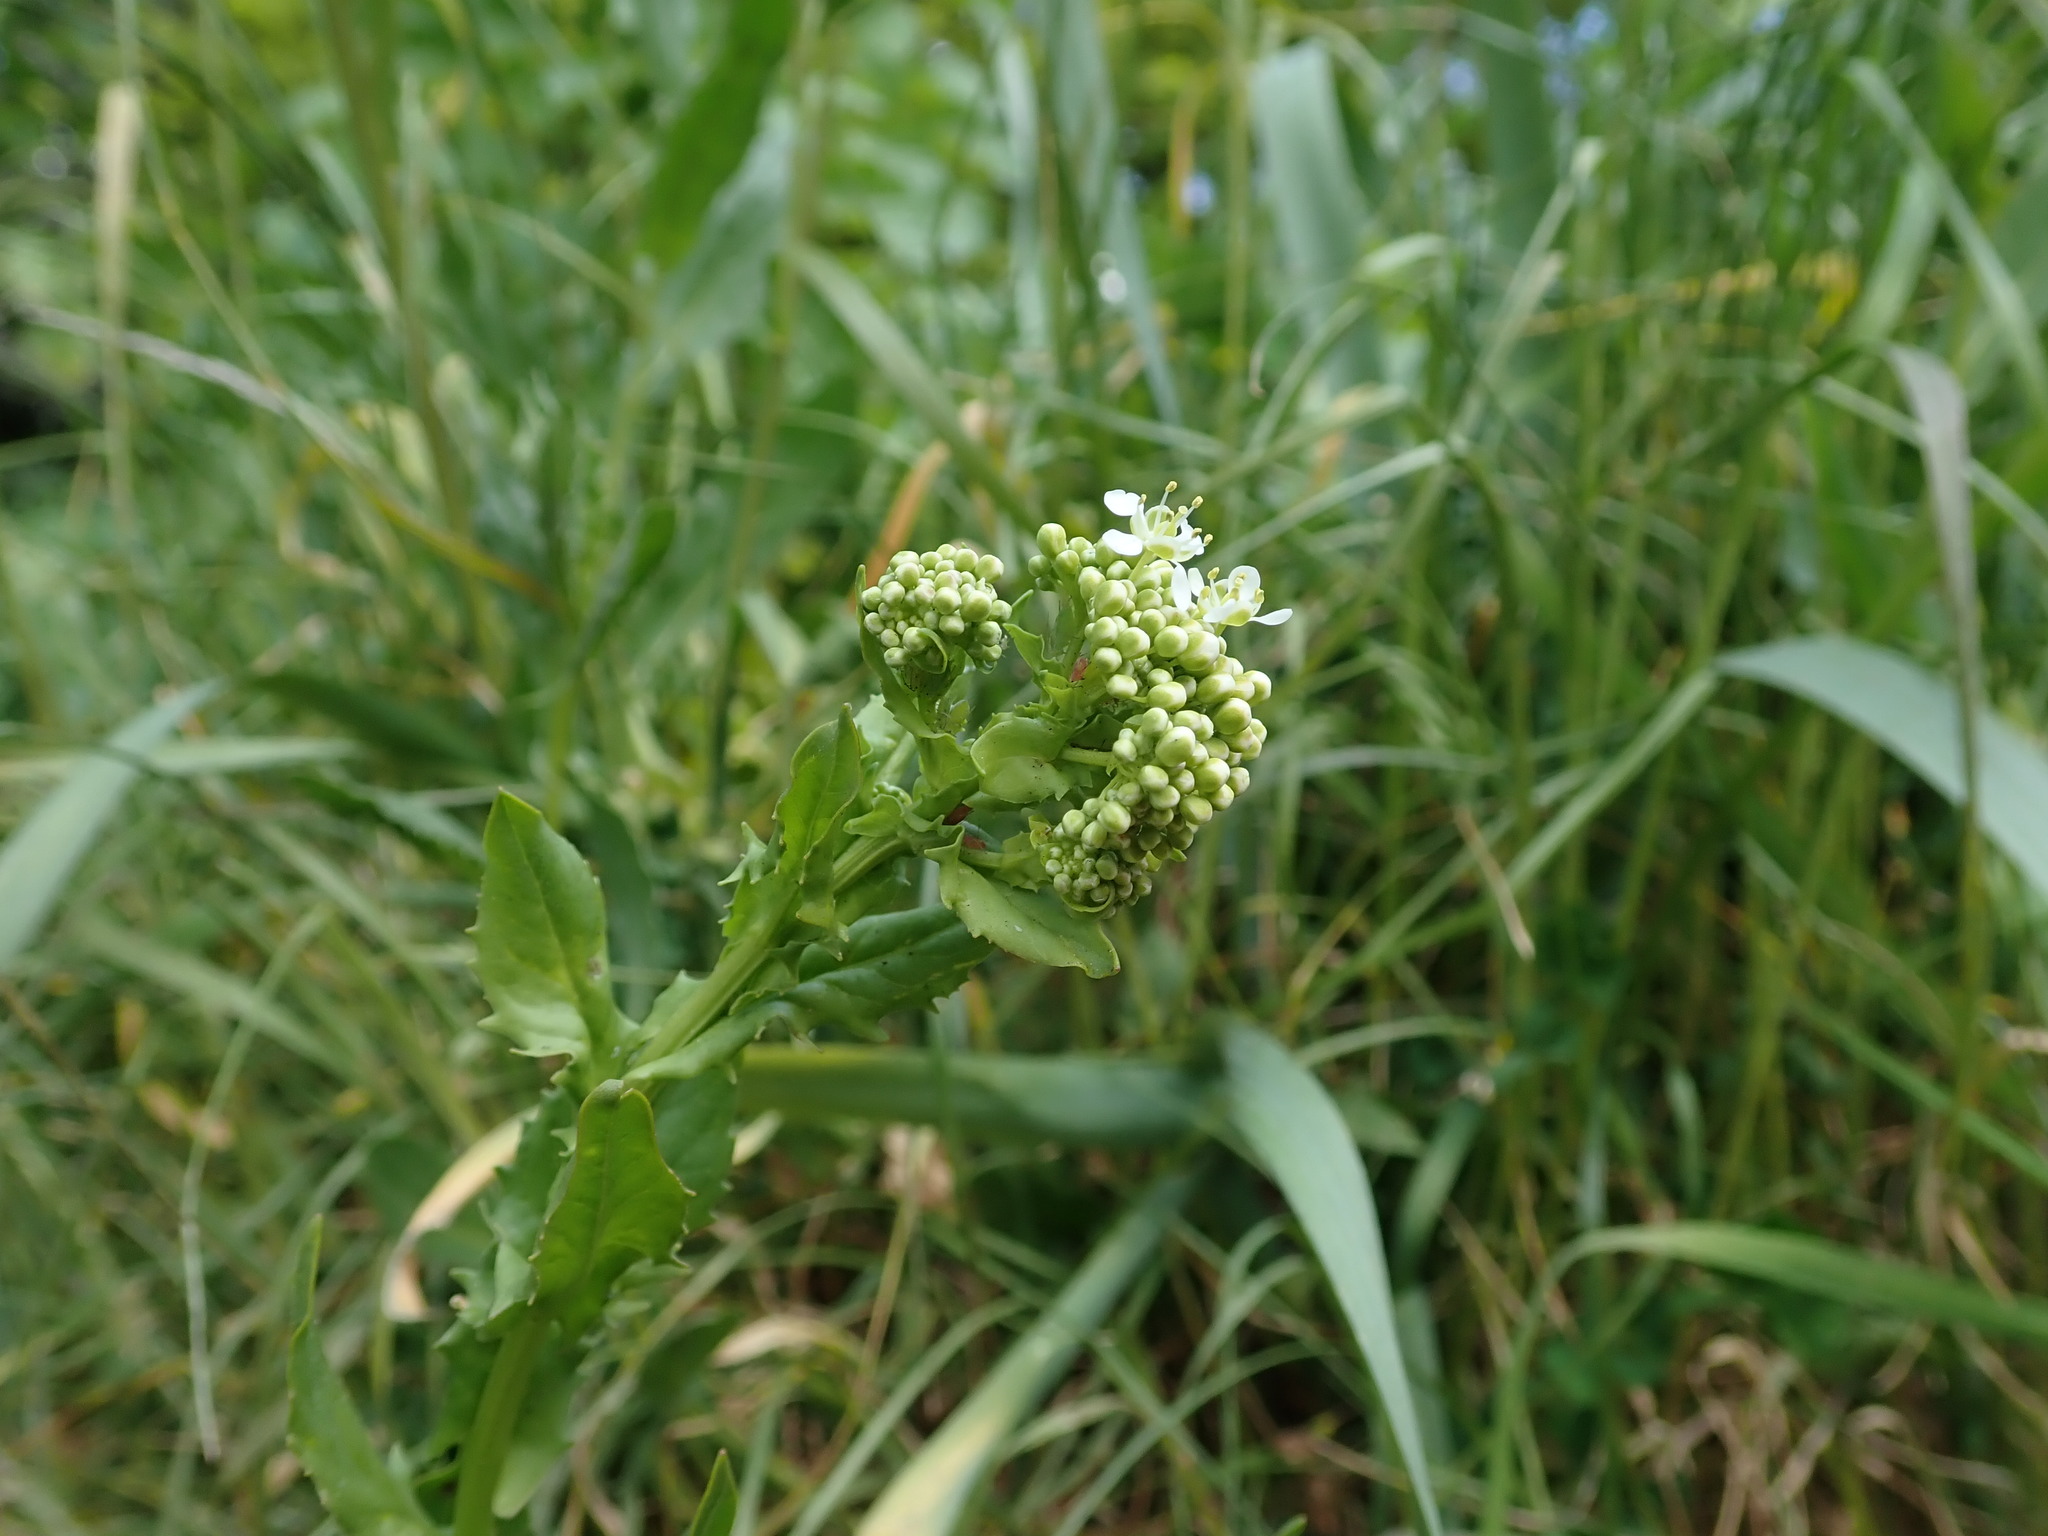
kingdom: Plantae
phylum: Tracheophyta
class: Magnoliopsida
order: Brassicales
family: Brassicaceae
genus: Lepidium
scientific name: Lepidium draba
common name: Hoary cress
